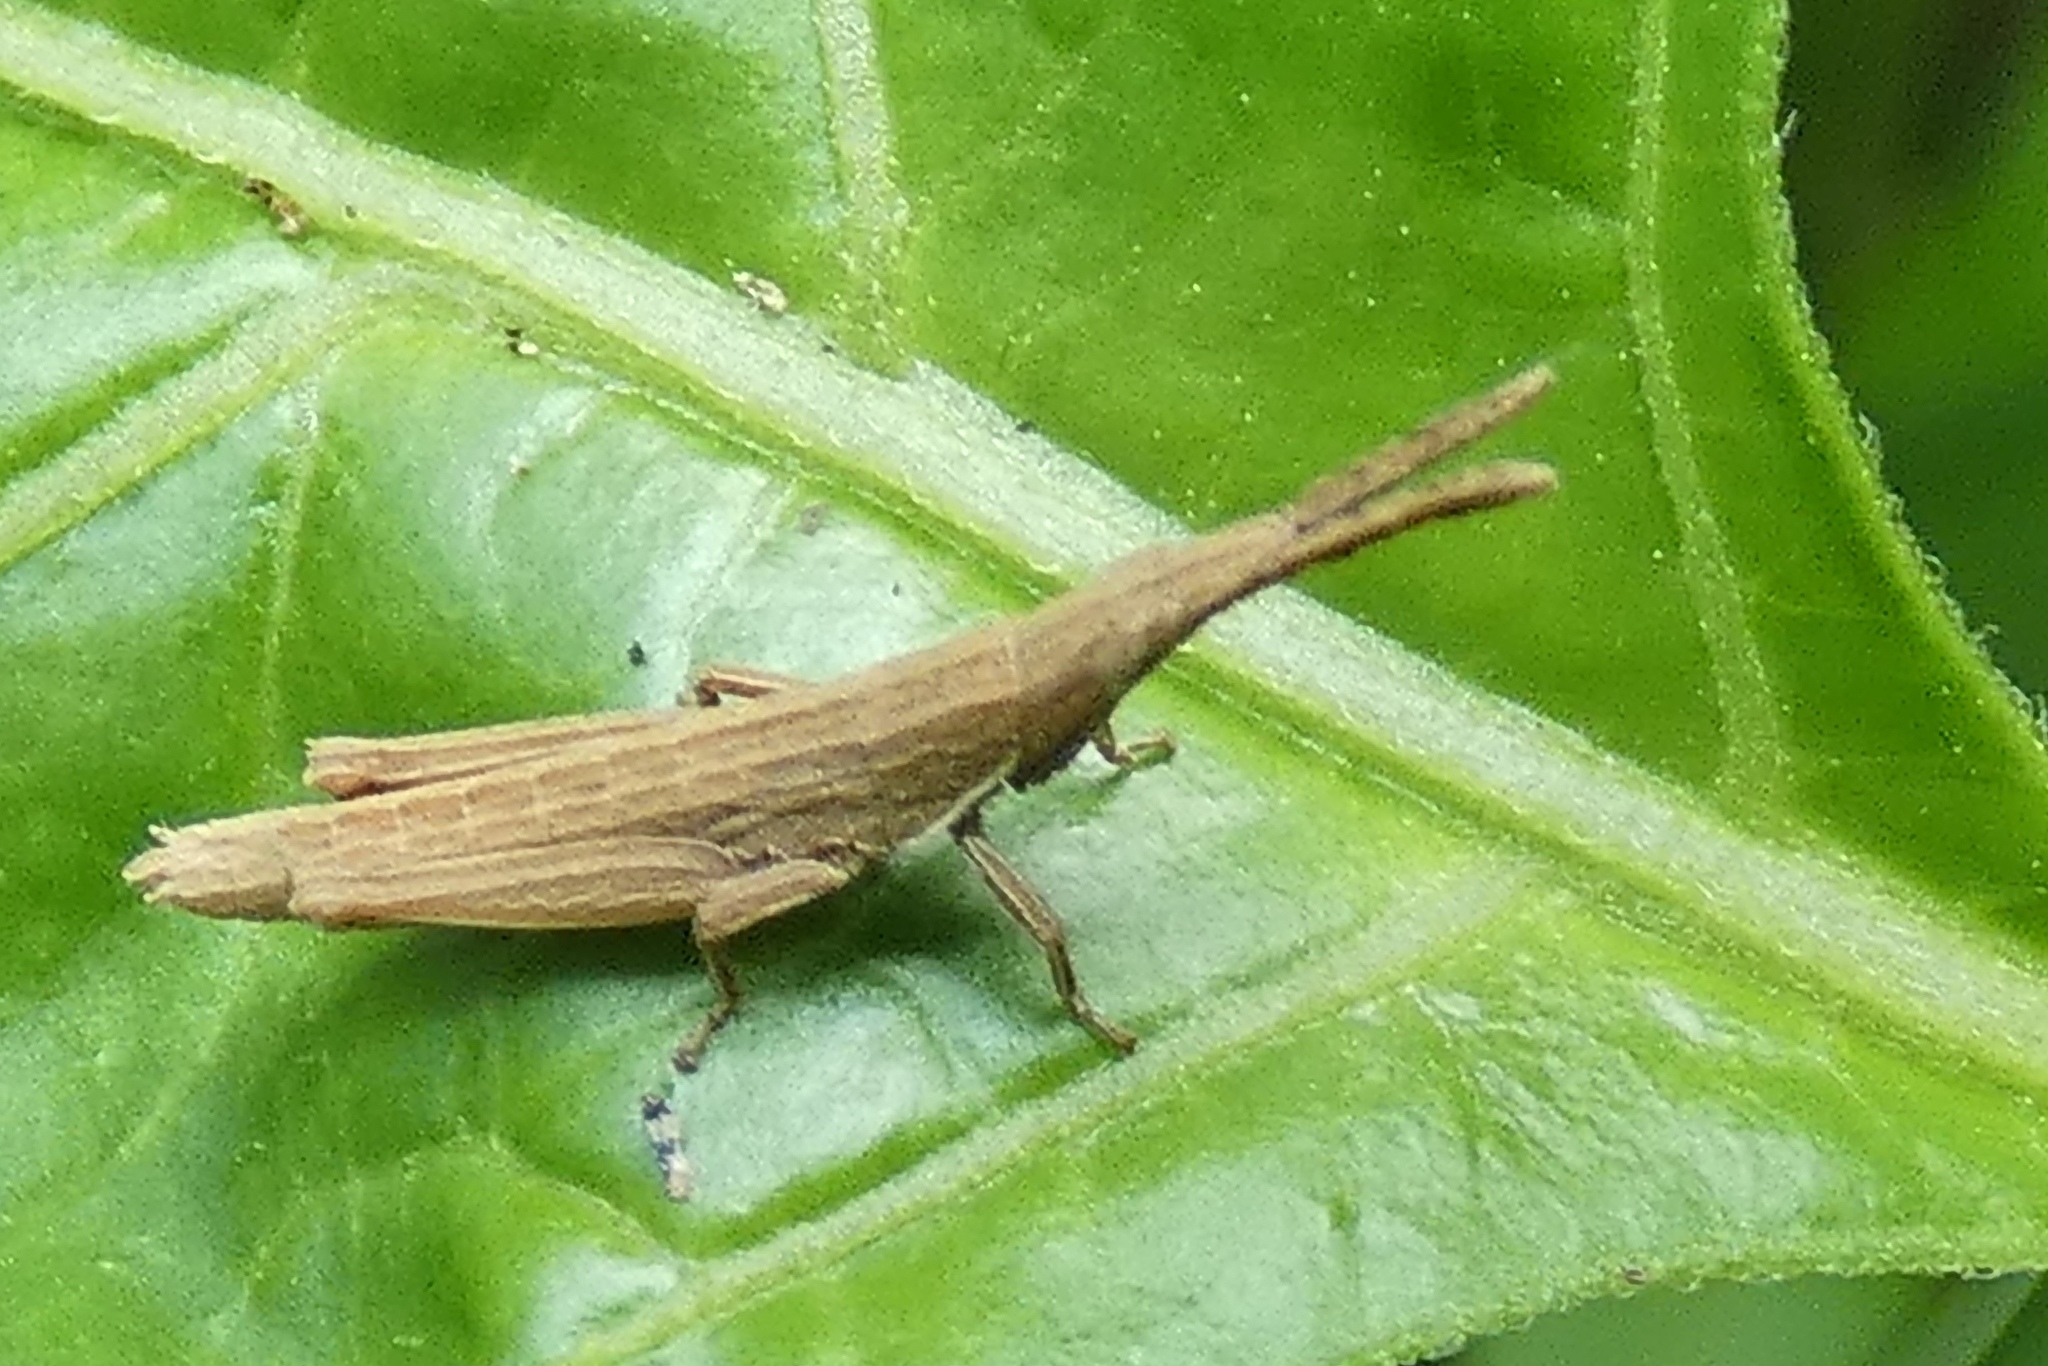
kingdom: Animalia
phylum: Arthropoda
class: Insecta
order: Orthoptera
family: Pyrgomorphidae
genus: Algete
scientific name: Algete brunneri
